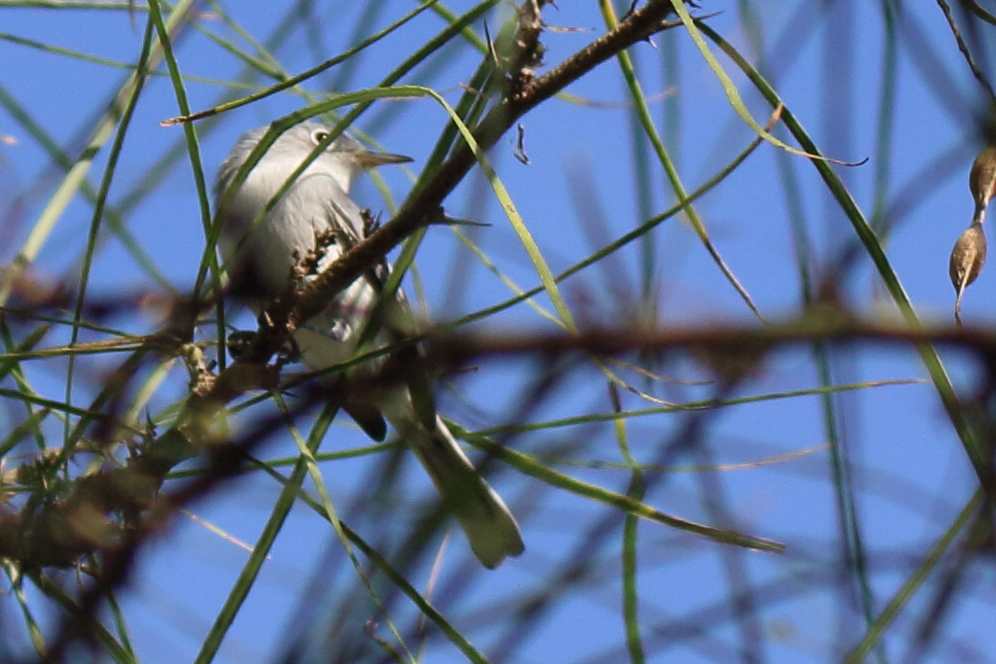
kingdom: Animalia
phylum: Chordata
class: Aves
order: Passeriformes
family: Polioptilidae
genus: Polioptila
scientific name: Polioptila caerulea
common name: Blue-gray gnatcatcher
